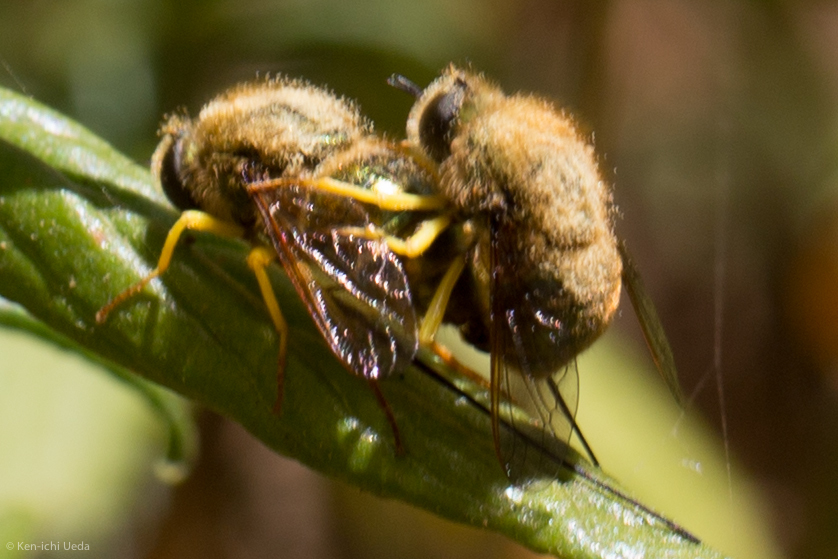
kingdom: Animalia
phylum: Arthropoda
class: Insecta
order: Diptera
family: Acroceridae
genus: Eulonchus
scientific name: Eulonchus smaragdinus
